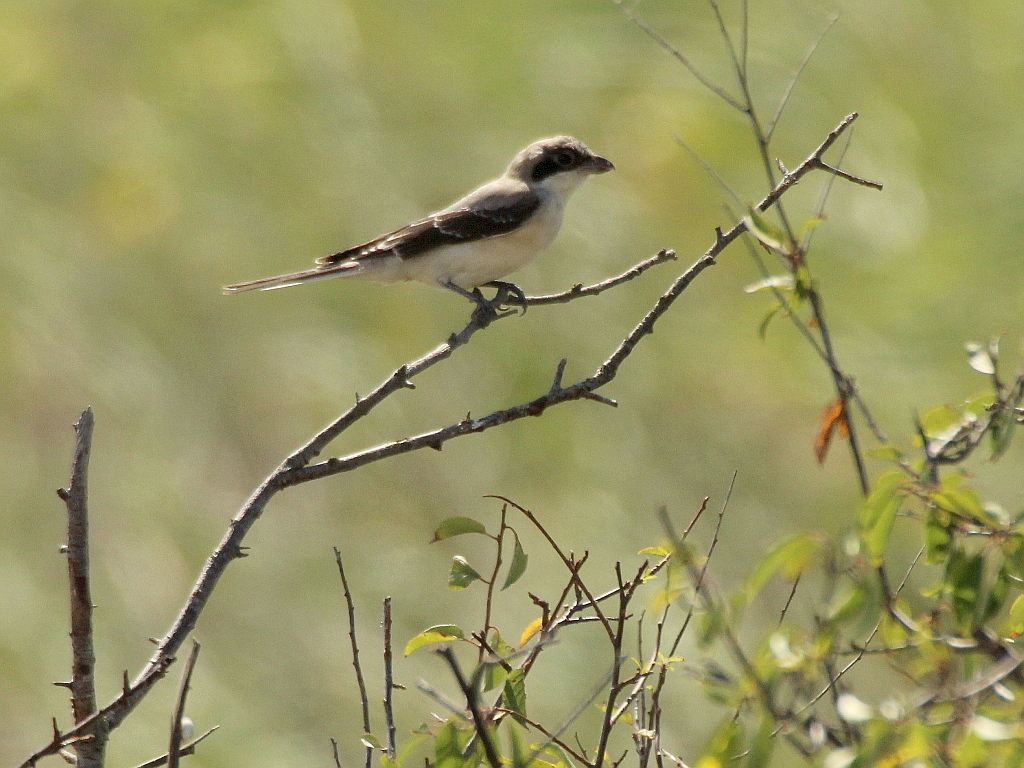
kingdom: Animalia
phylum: Chordata
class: Aves
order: Passeriformes
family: Laniidae
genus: Lanius
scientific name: Lanius minor
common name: Lesser grey shrike
